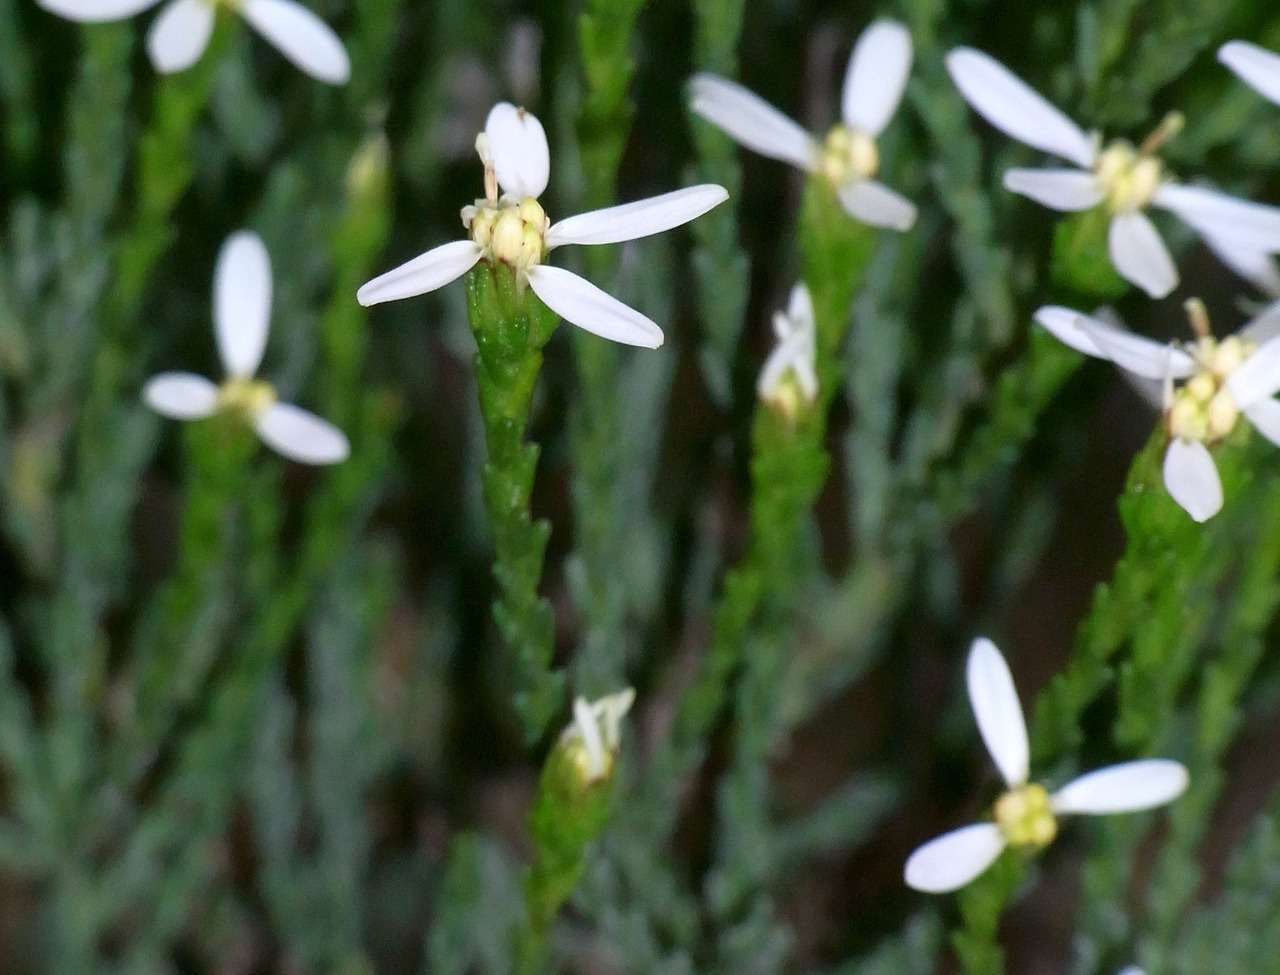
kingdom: Plantae
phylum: Tracheophyta
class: Magnoliopsida
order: Asterales
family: Asteraceae
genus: Olearia
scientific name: Olearia teretifolia
